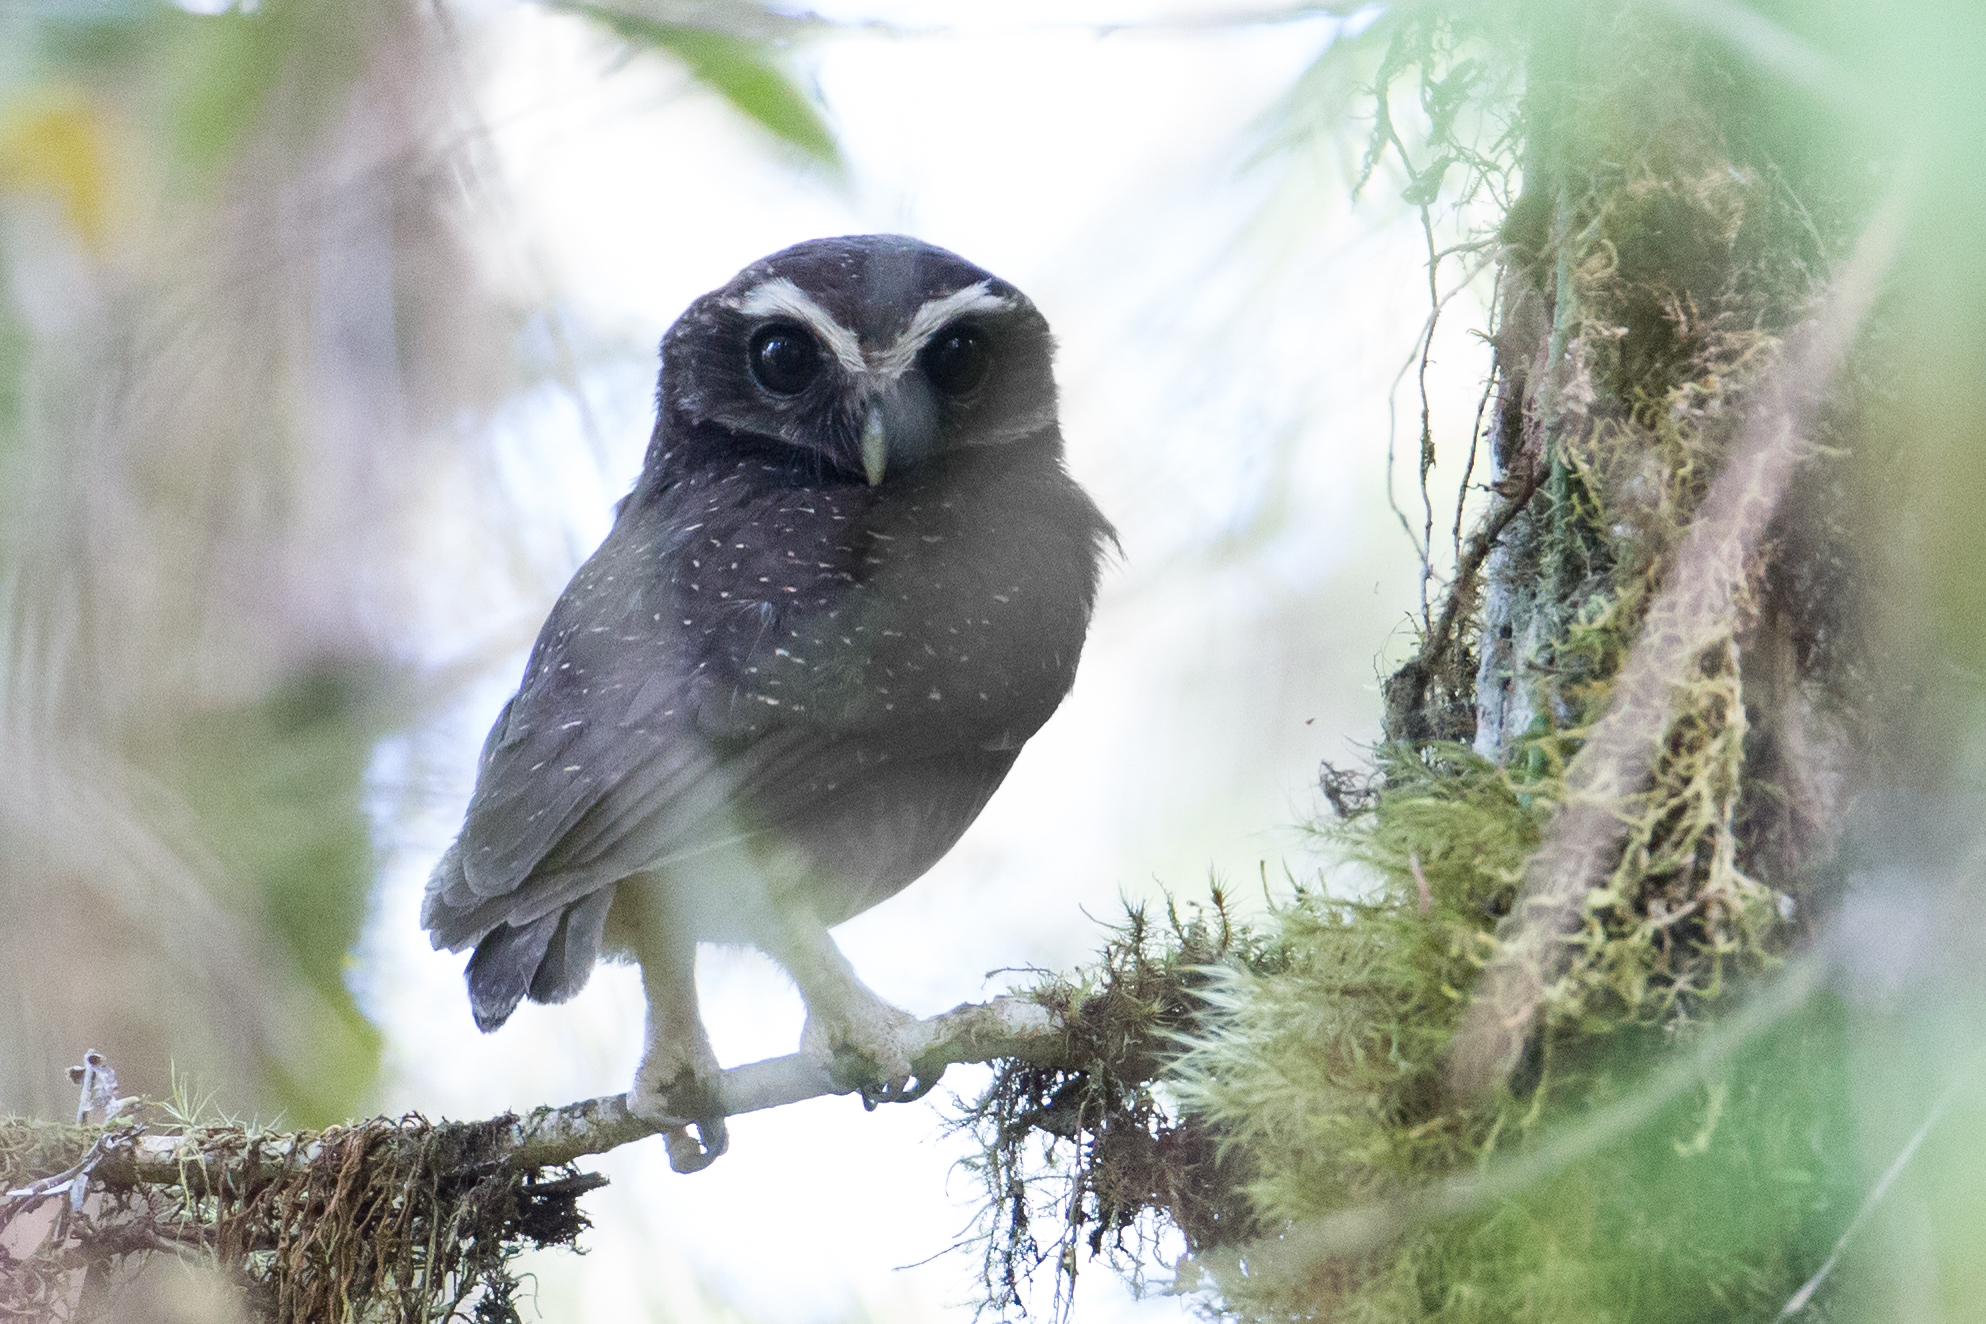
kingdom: Animalia
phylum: Chordata
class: Aves
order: Strigiformes
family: Strigidae
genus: Ninox
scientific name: Ninox punctulata
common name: Speckled boobook
